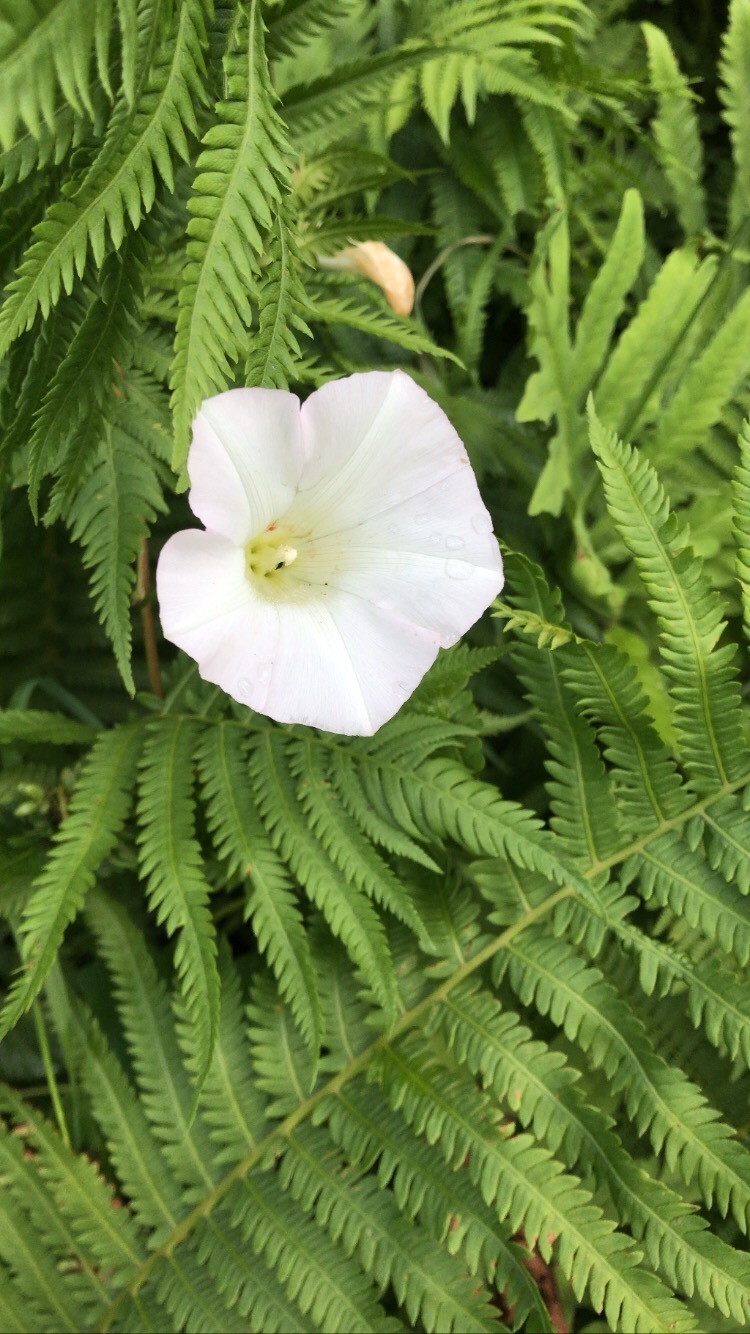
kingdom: Plantae
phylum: Tracheophyta
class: Magnoliopsida
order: Solanales
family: Convolvulaceae
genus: Calystegia
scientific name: Calystegia sepium
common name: Hedge bindweed
